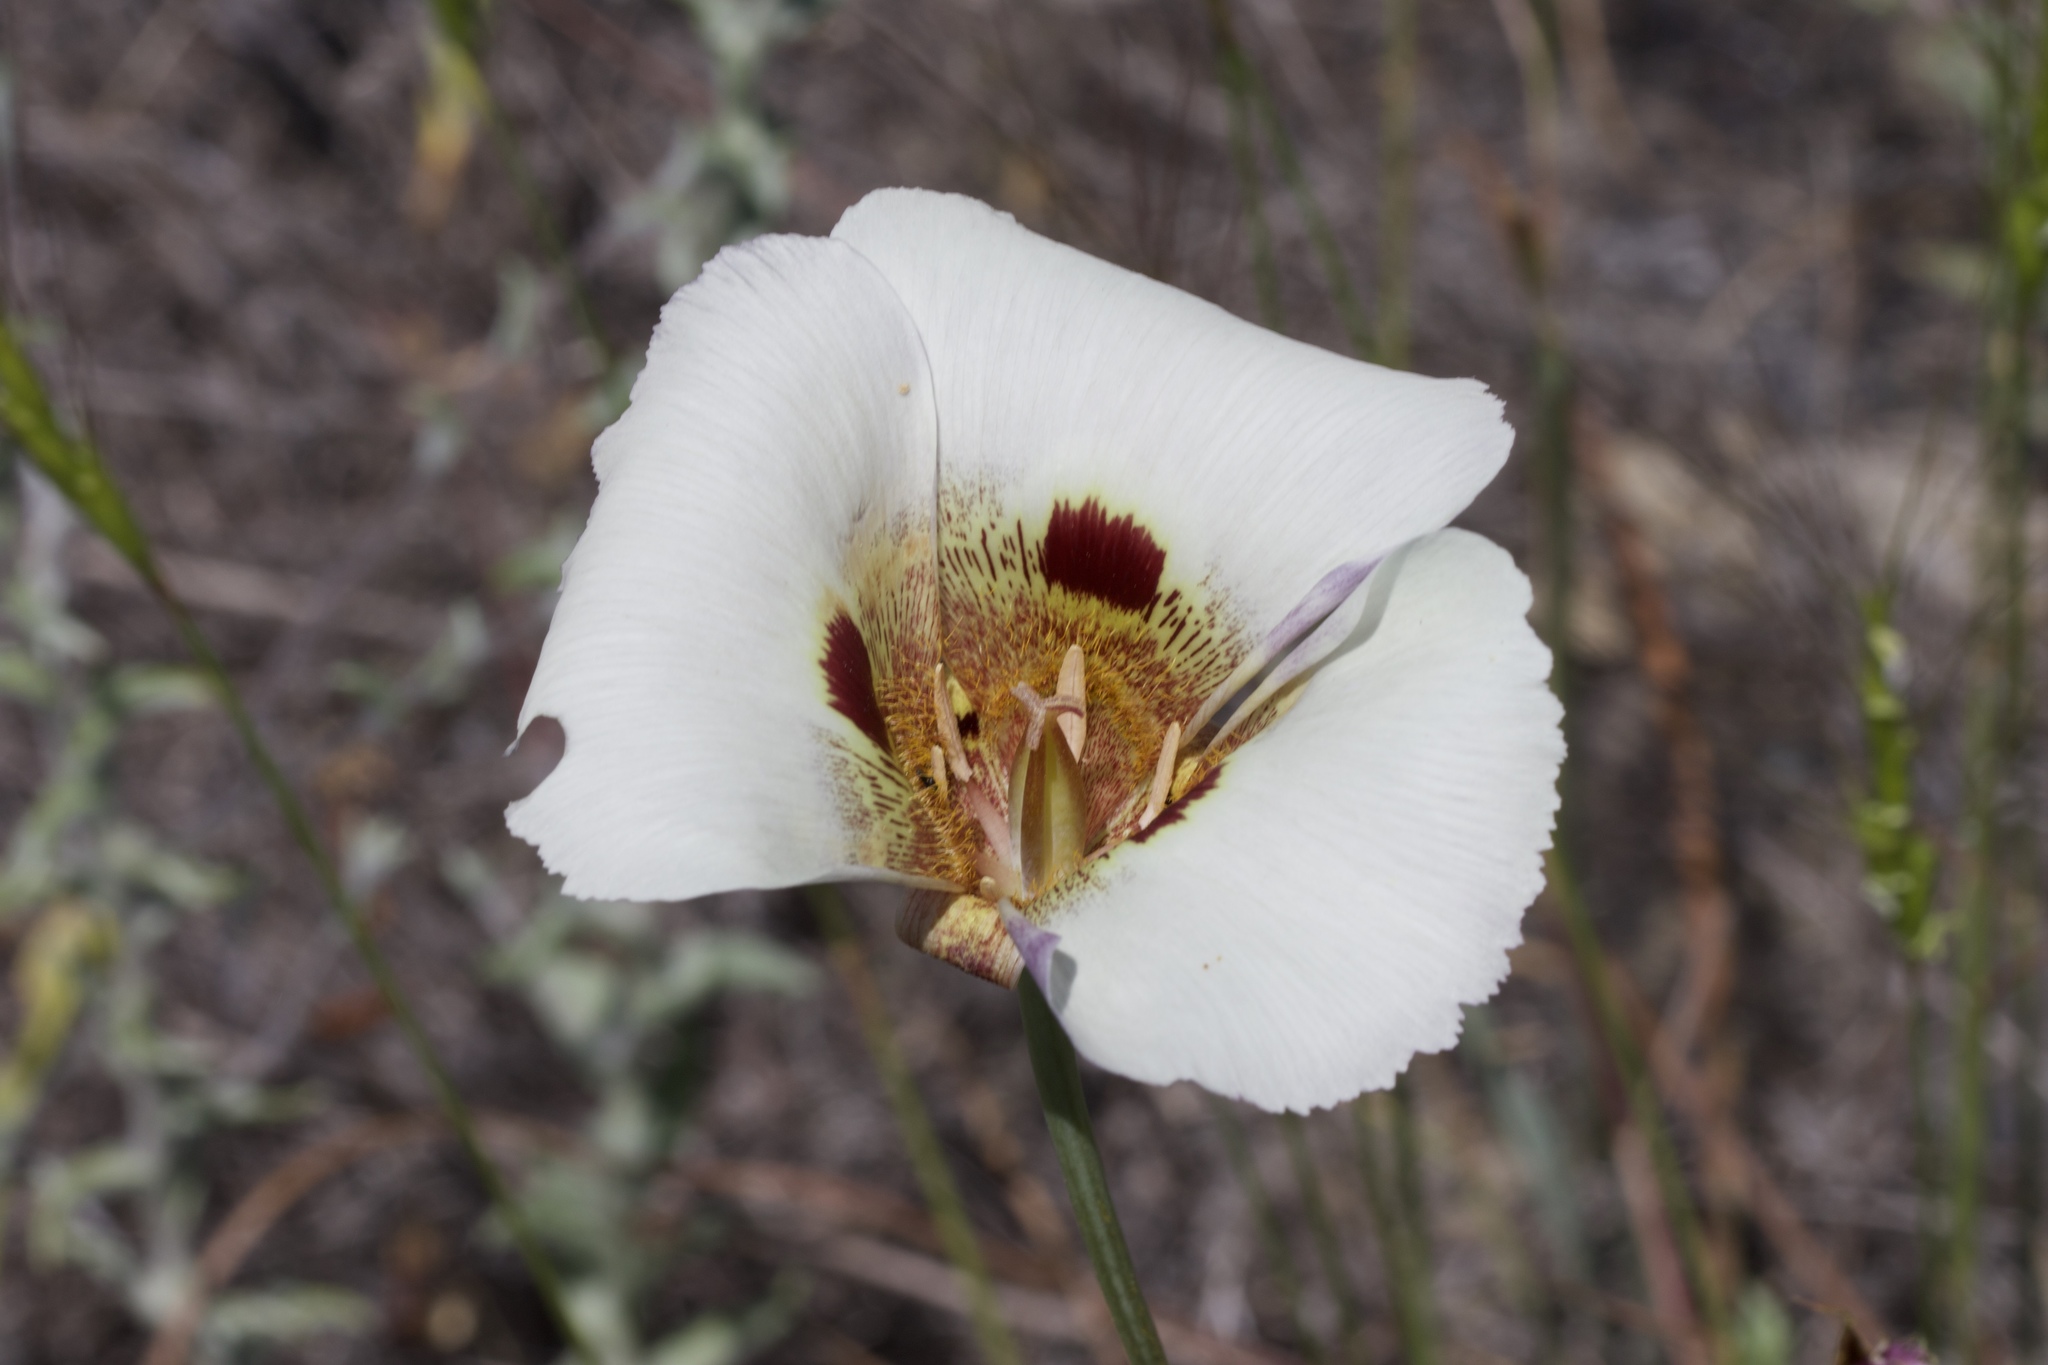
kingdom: Plantae
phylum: Tracheophyta
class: Liliopsida
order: Liliales
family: Liliaceae
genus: Calochortus
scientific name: Calochortus vestae
